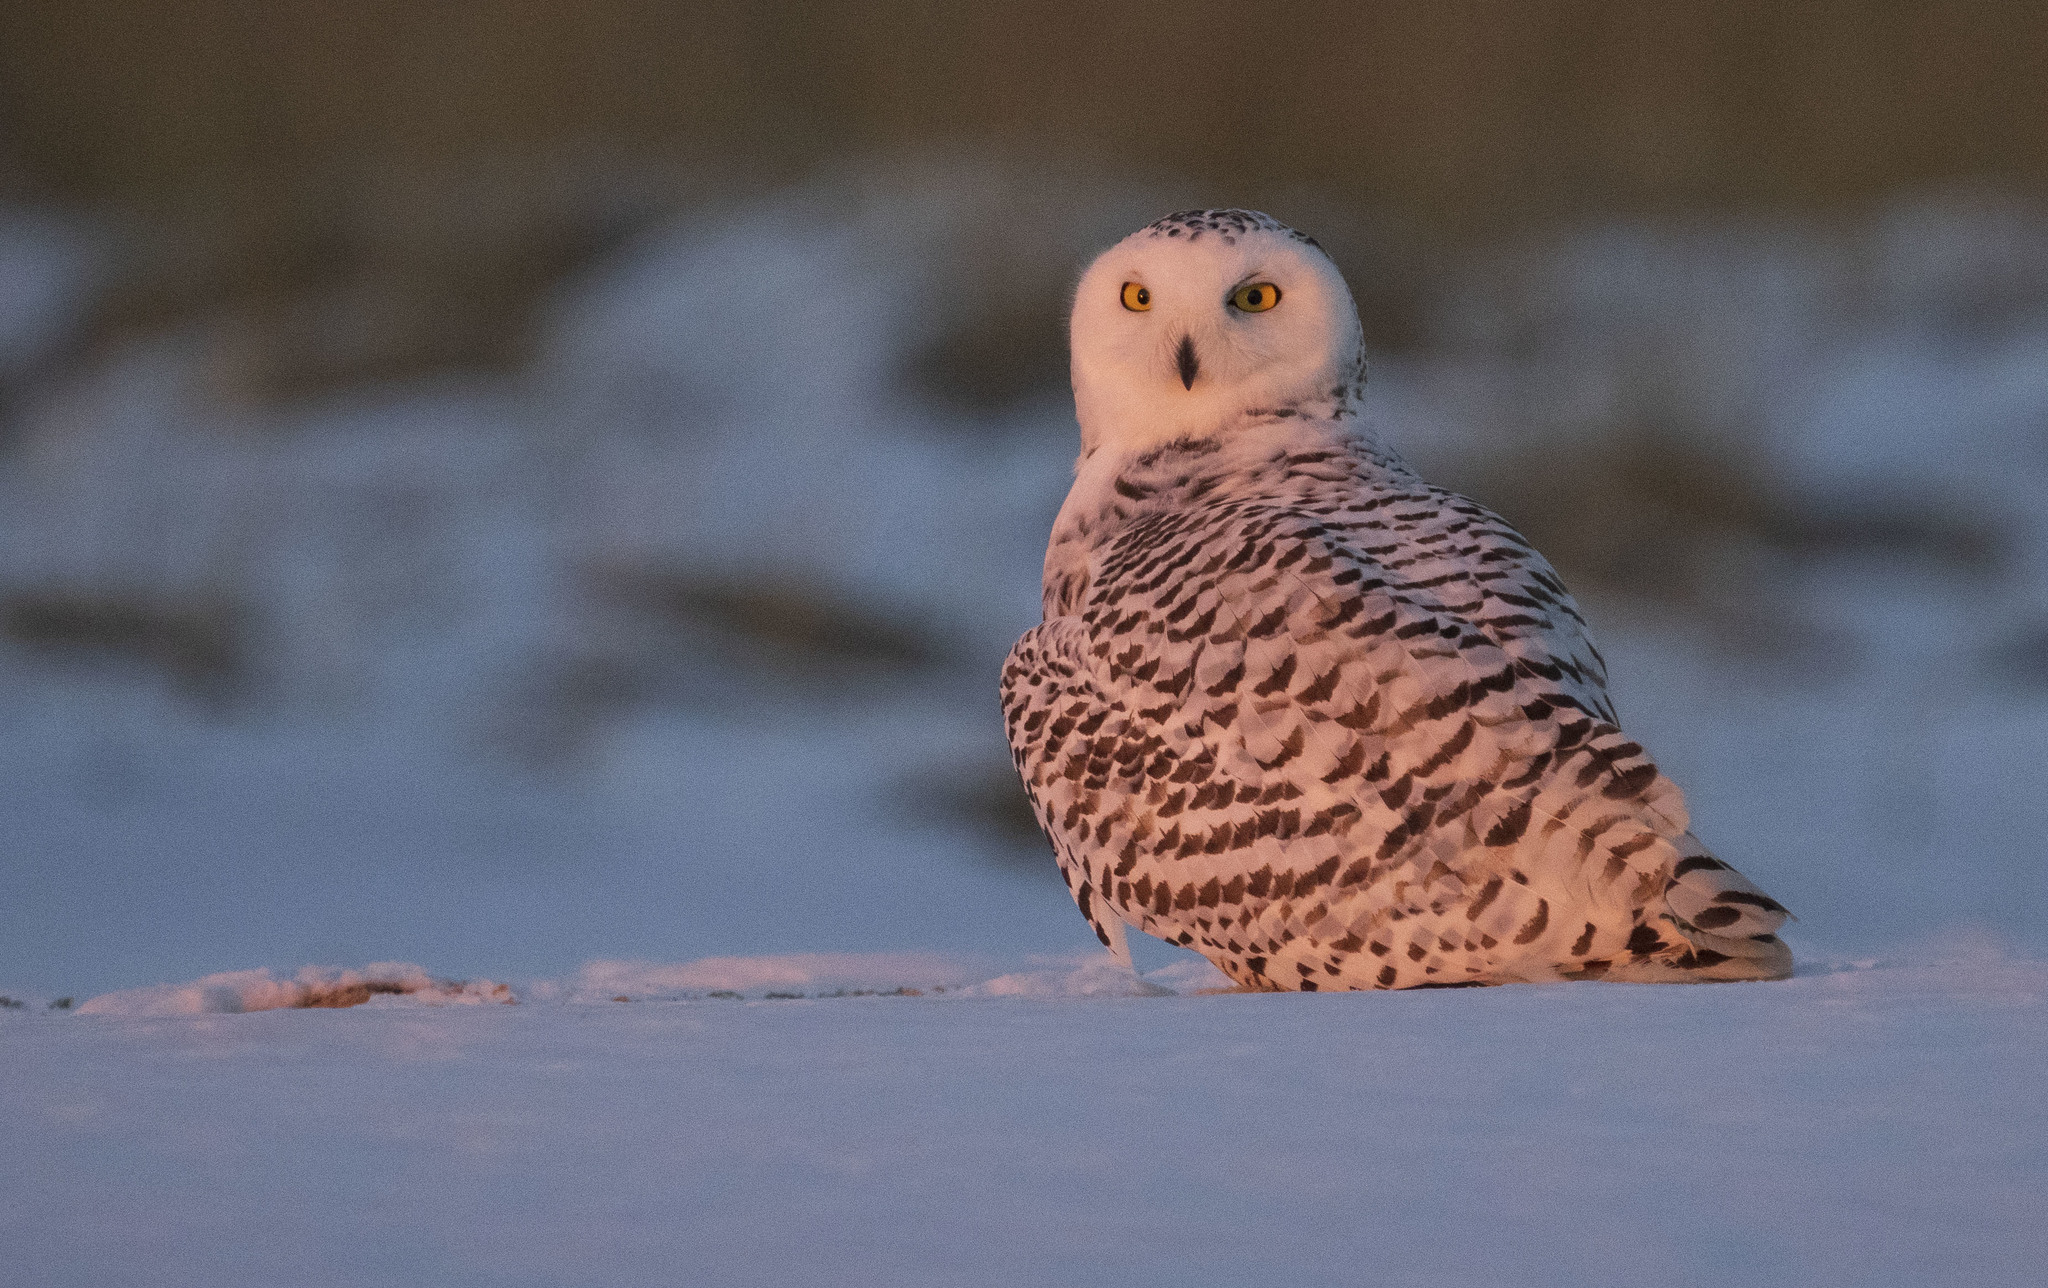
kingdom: Animalia
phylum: Chordata
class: Aves
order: Strigiformes
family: Strigidae
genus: Bubo
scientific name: Bubo scandiacus
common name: Snowy owl
